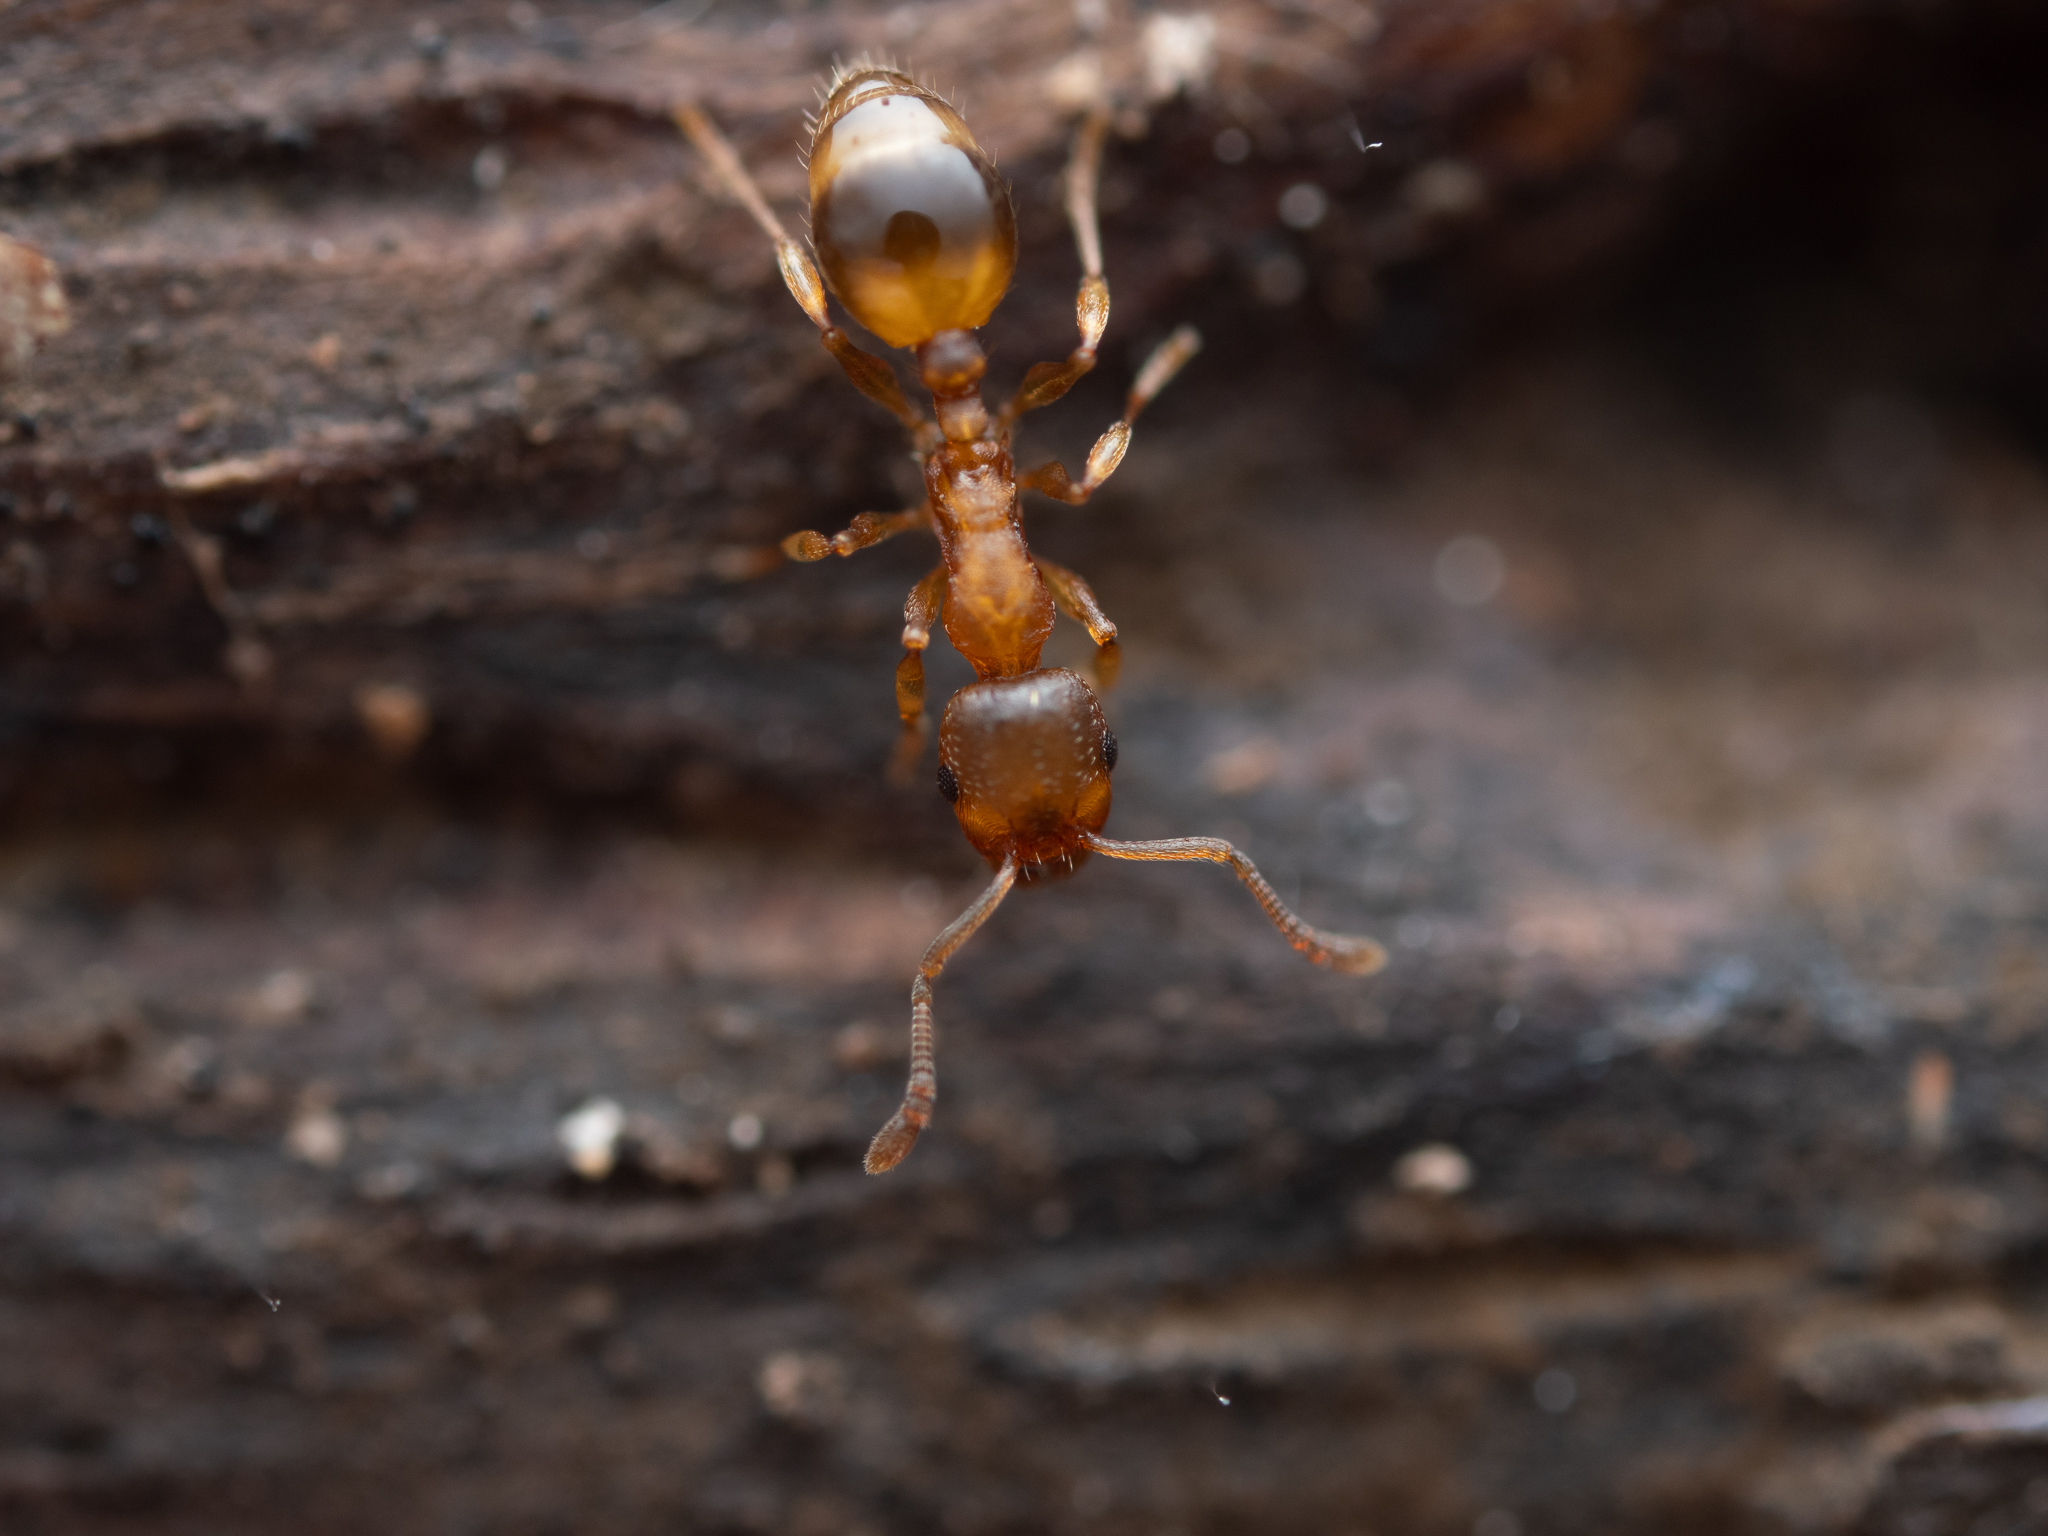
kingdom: Animalia
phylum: Arthropoda
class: Insecta
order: Hymenoptera
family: Formicidae
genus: Temnothorax
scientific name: Temnothorax crassispinus
